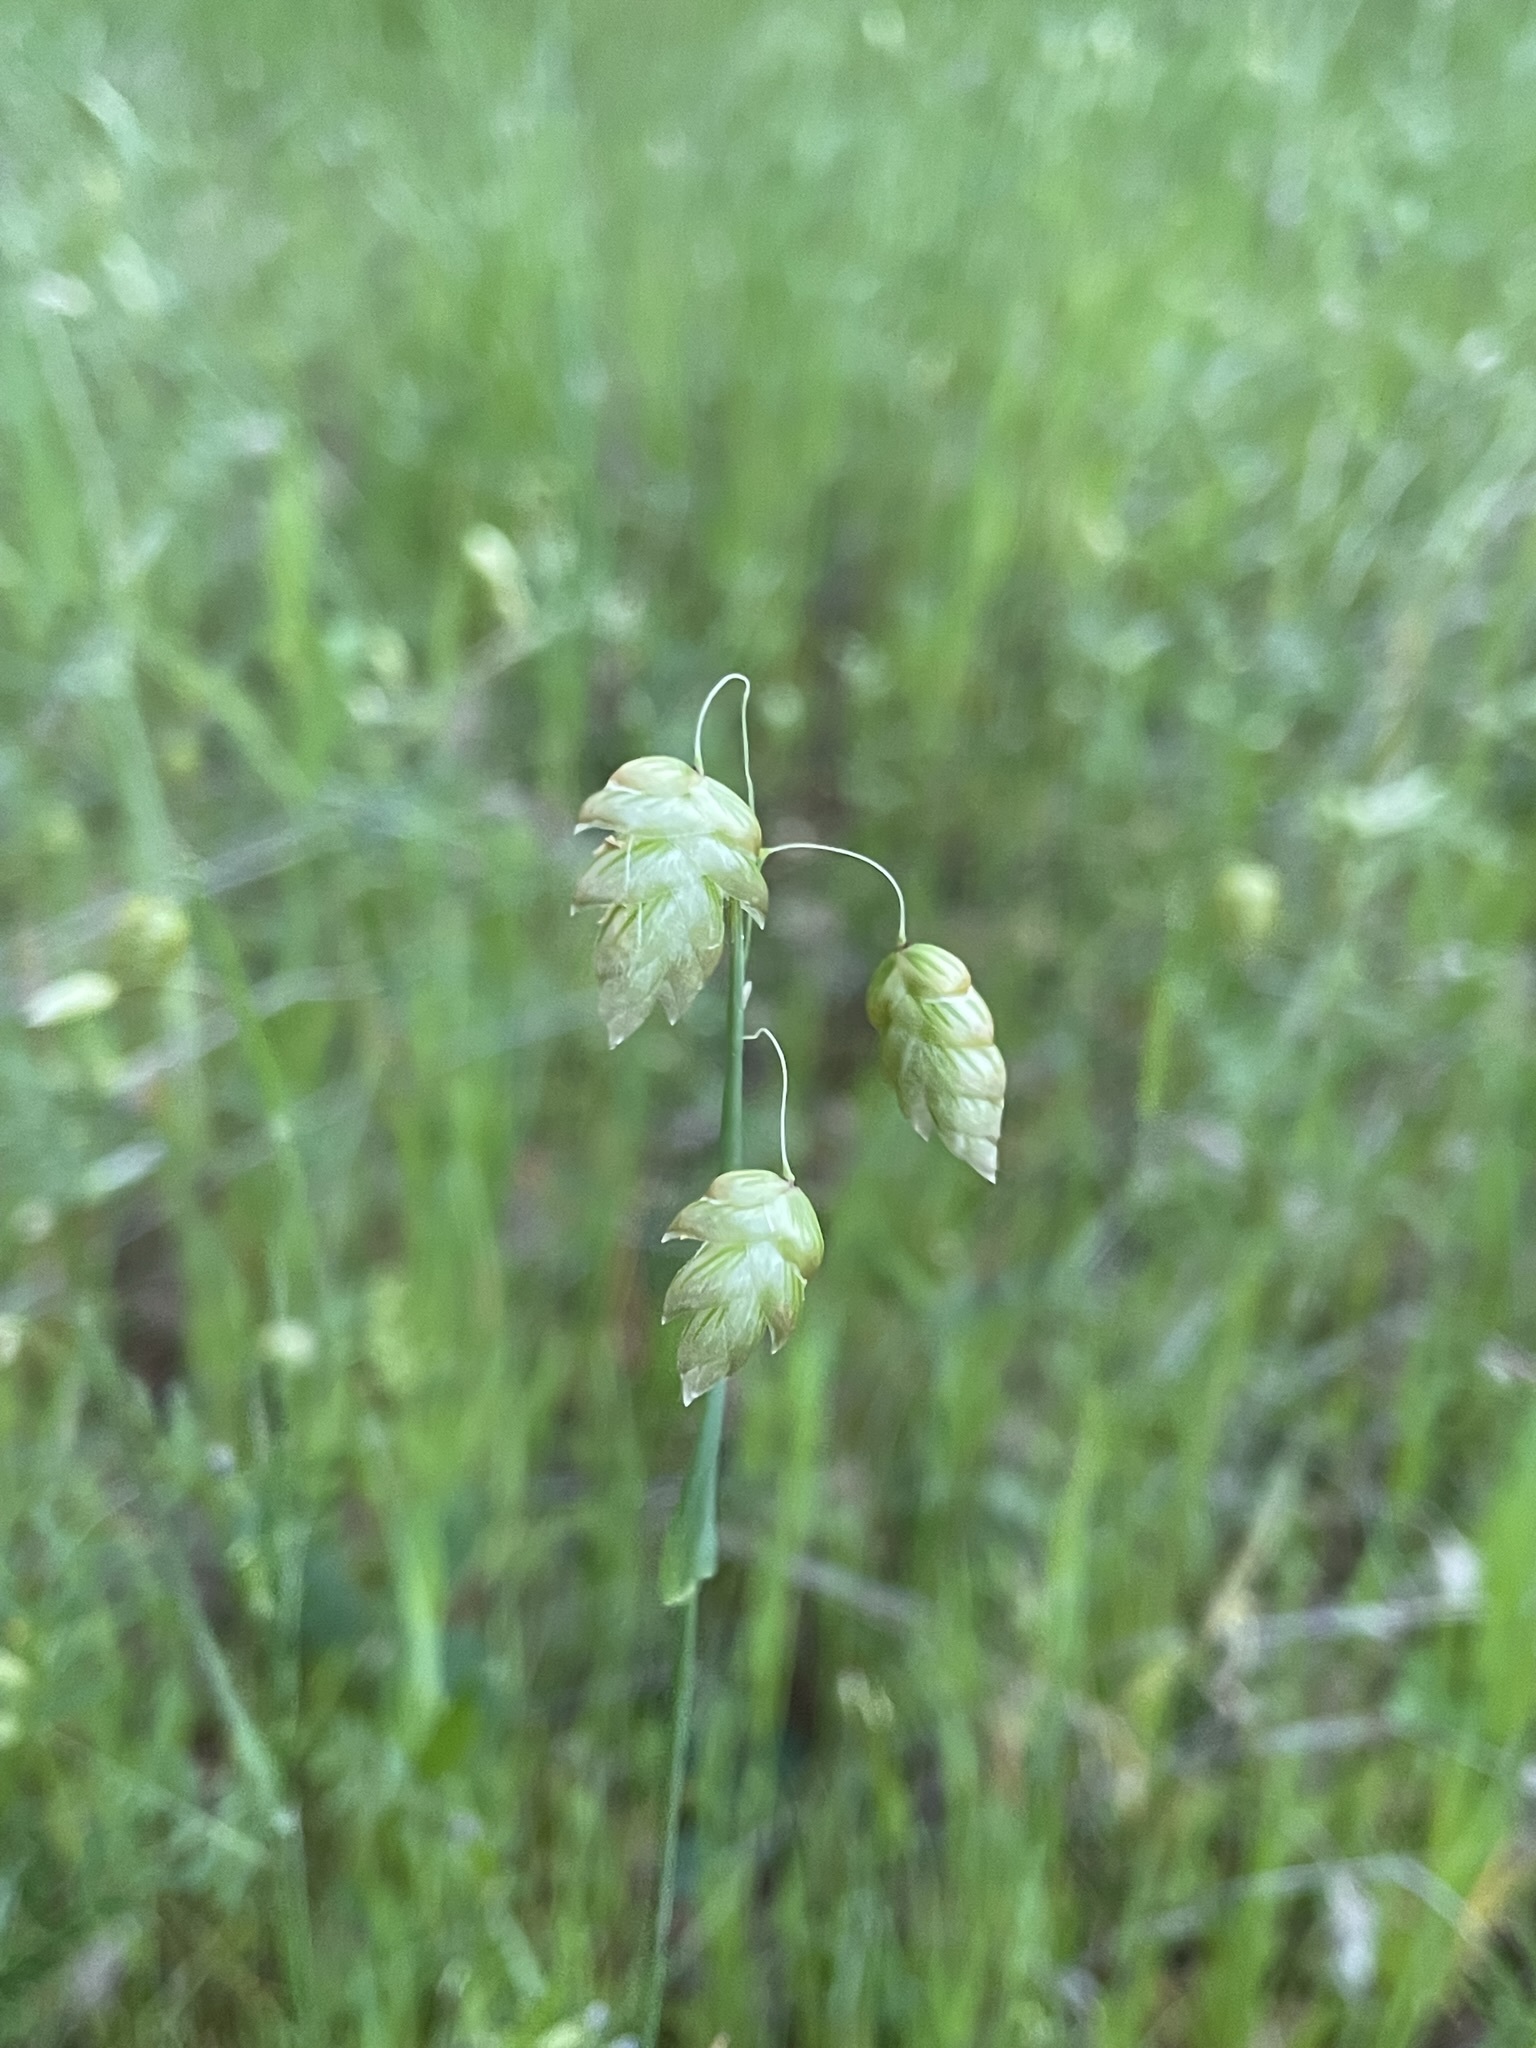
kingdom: Plantae
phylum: Tracheophyta
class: Liliopsida
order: Poales
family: Poaceae
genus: Briza
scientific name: Briza maxima
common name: Big quakinggrass
